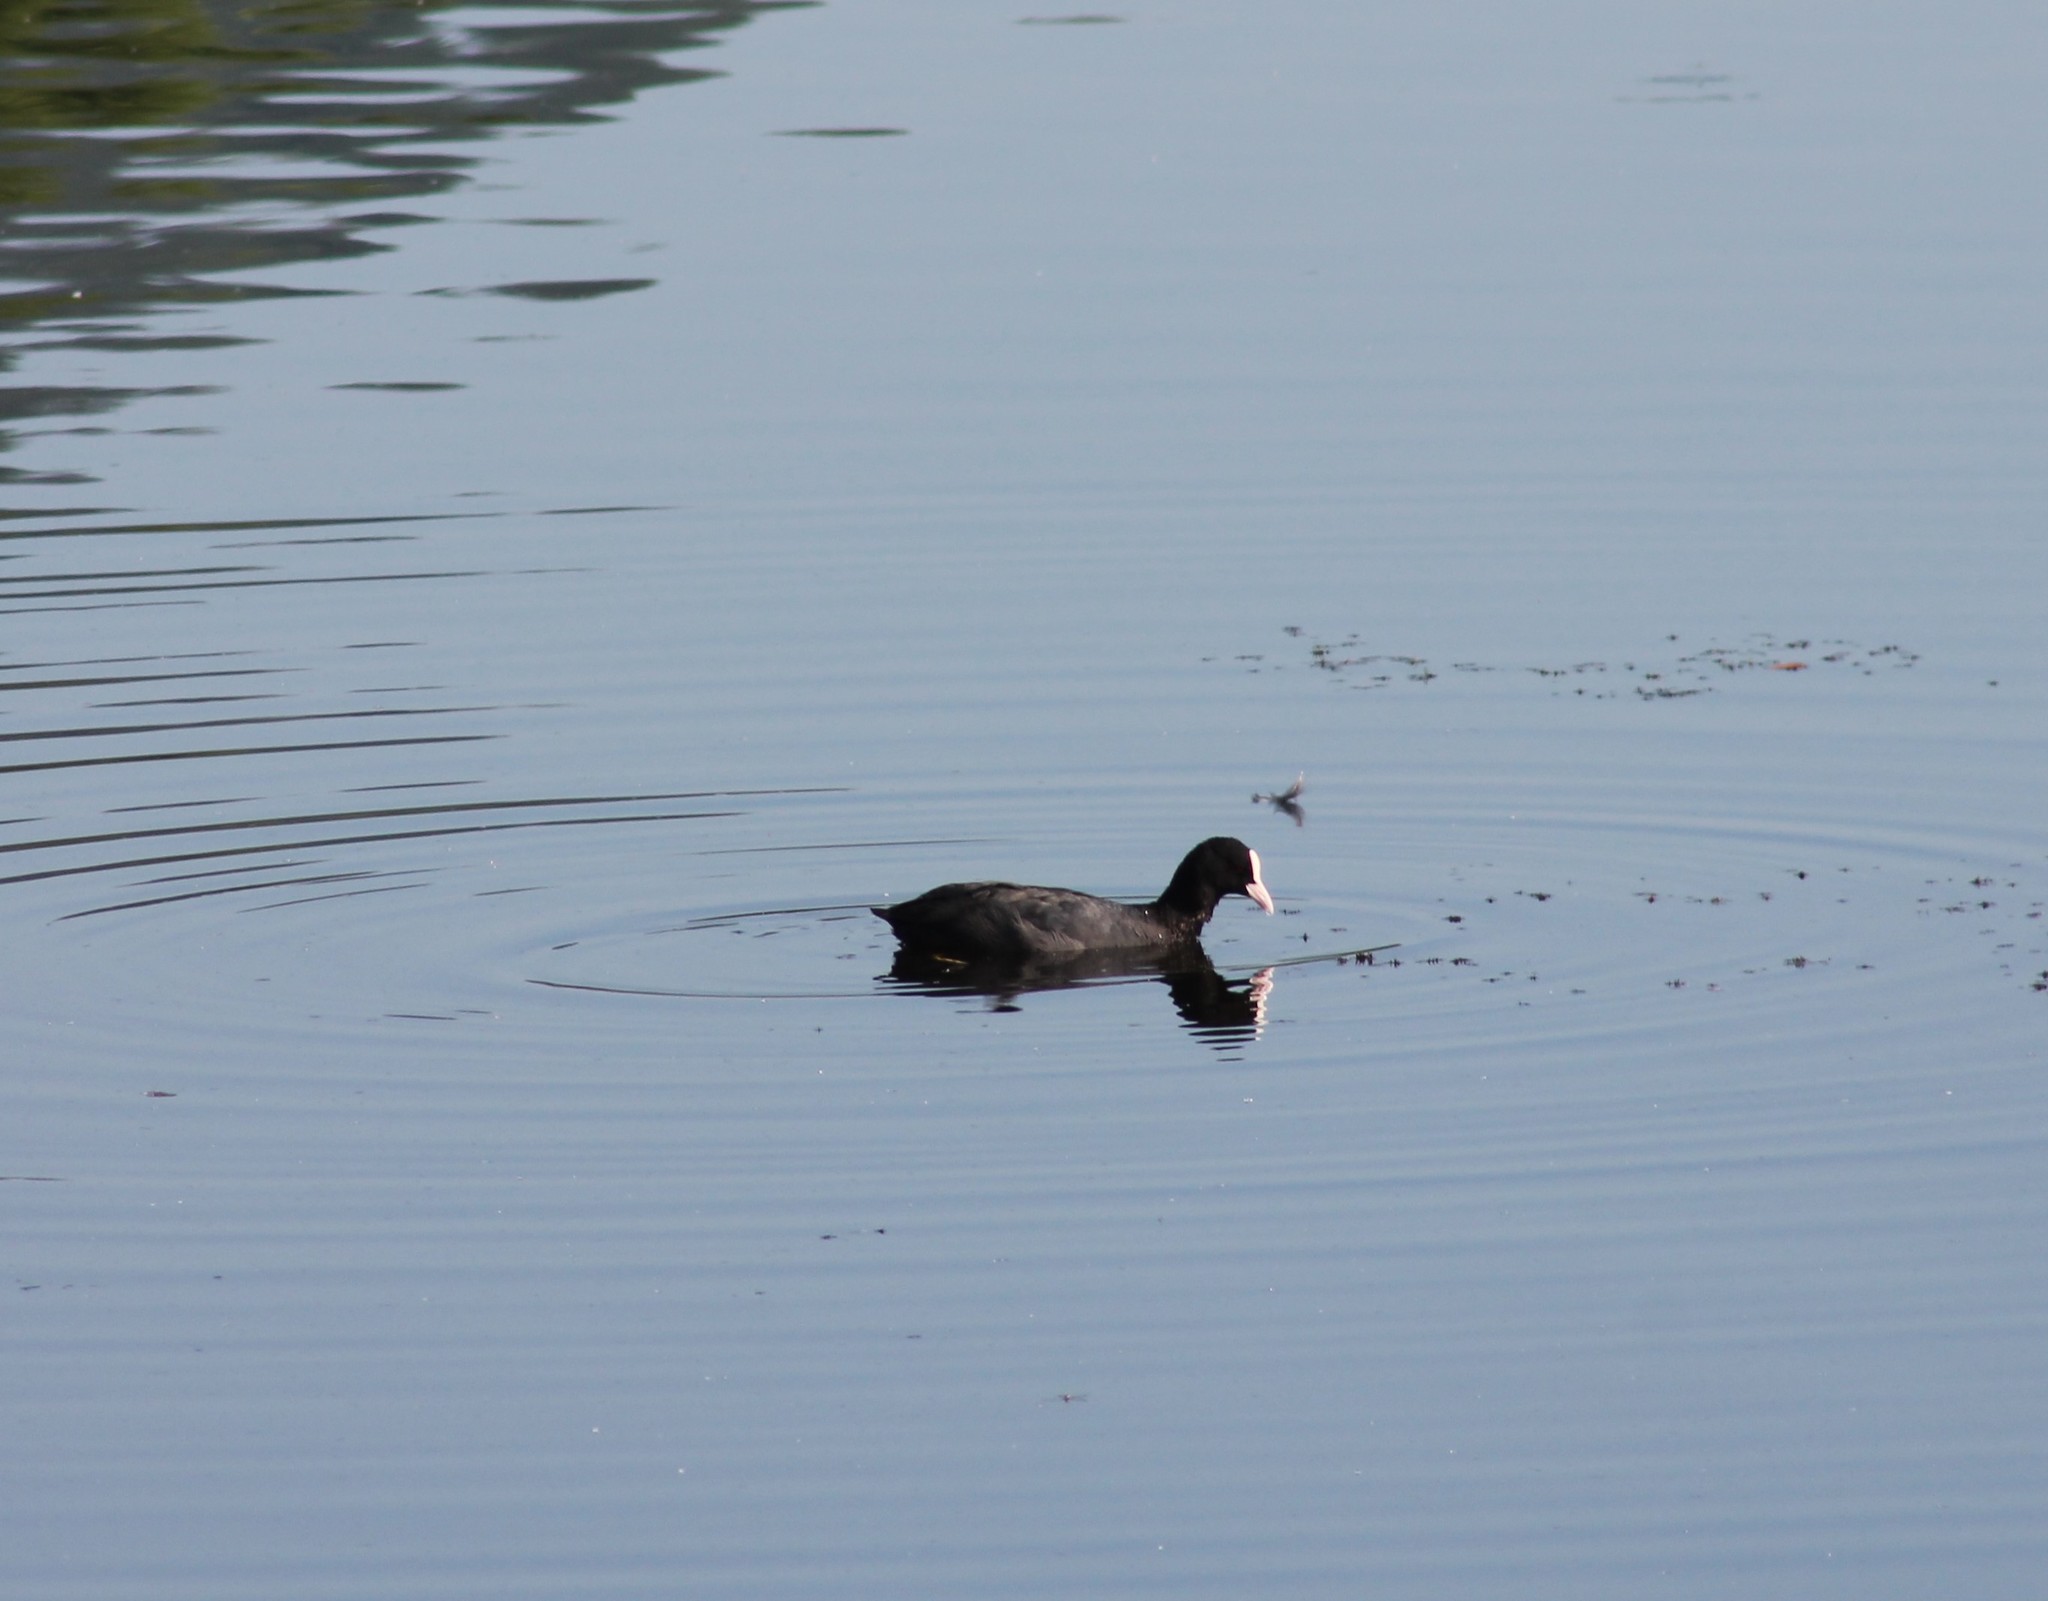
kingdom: Animalia
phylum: Chordata
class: Aves
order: Gruiformes
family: Rallidae
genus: Fulica
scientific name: Fulica atra
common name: Eurasian coot
